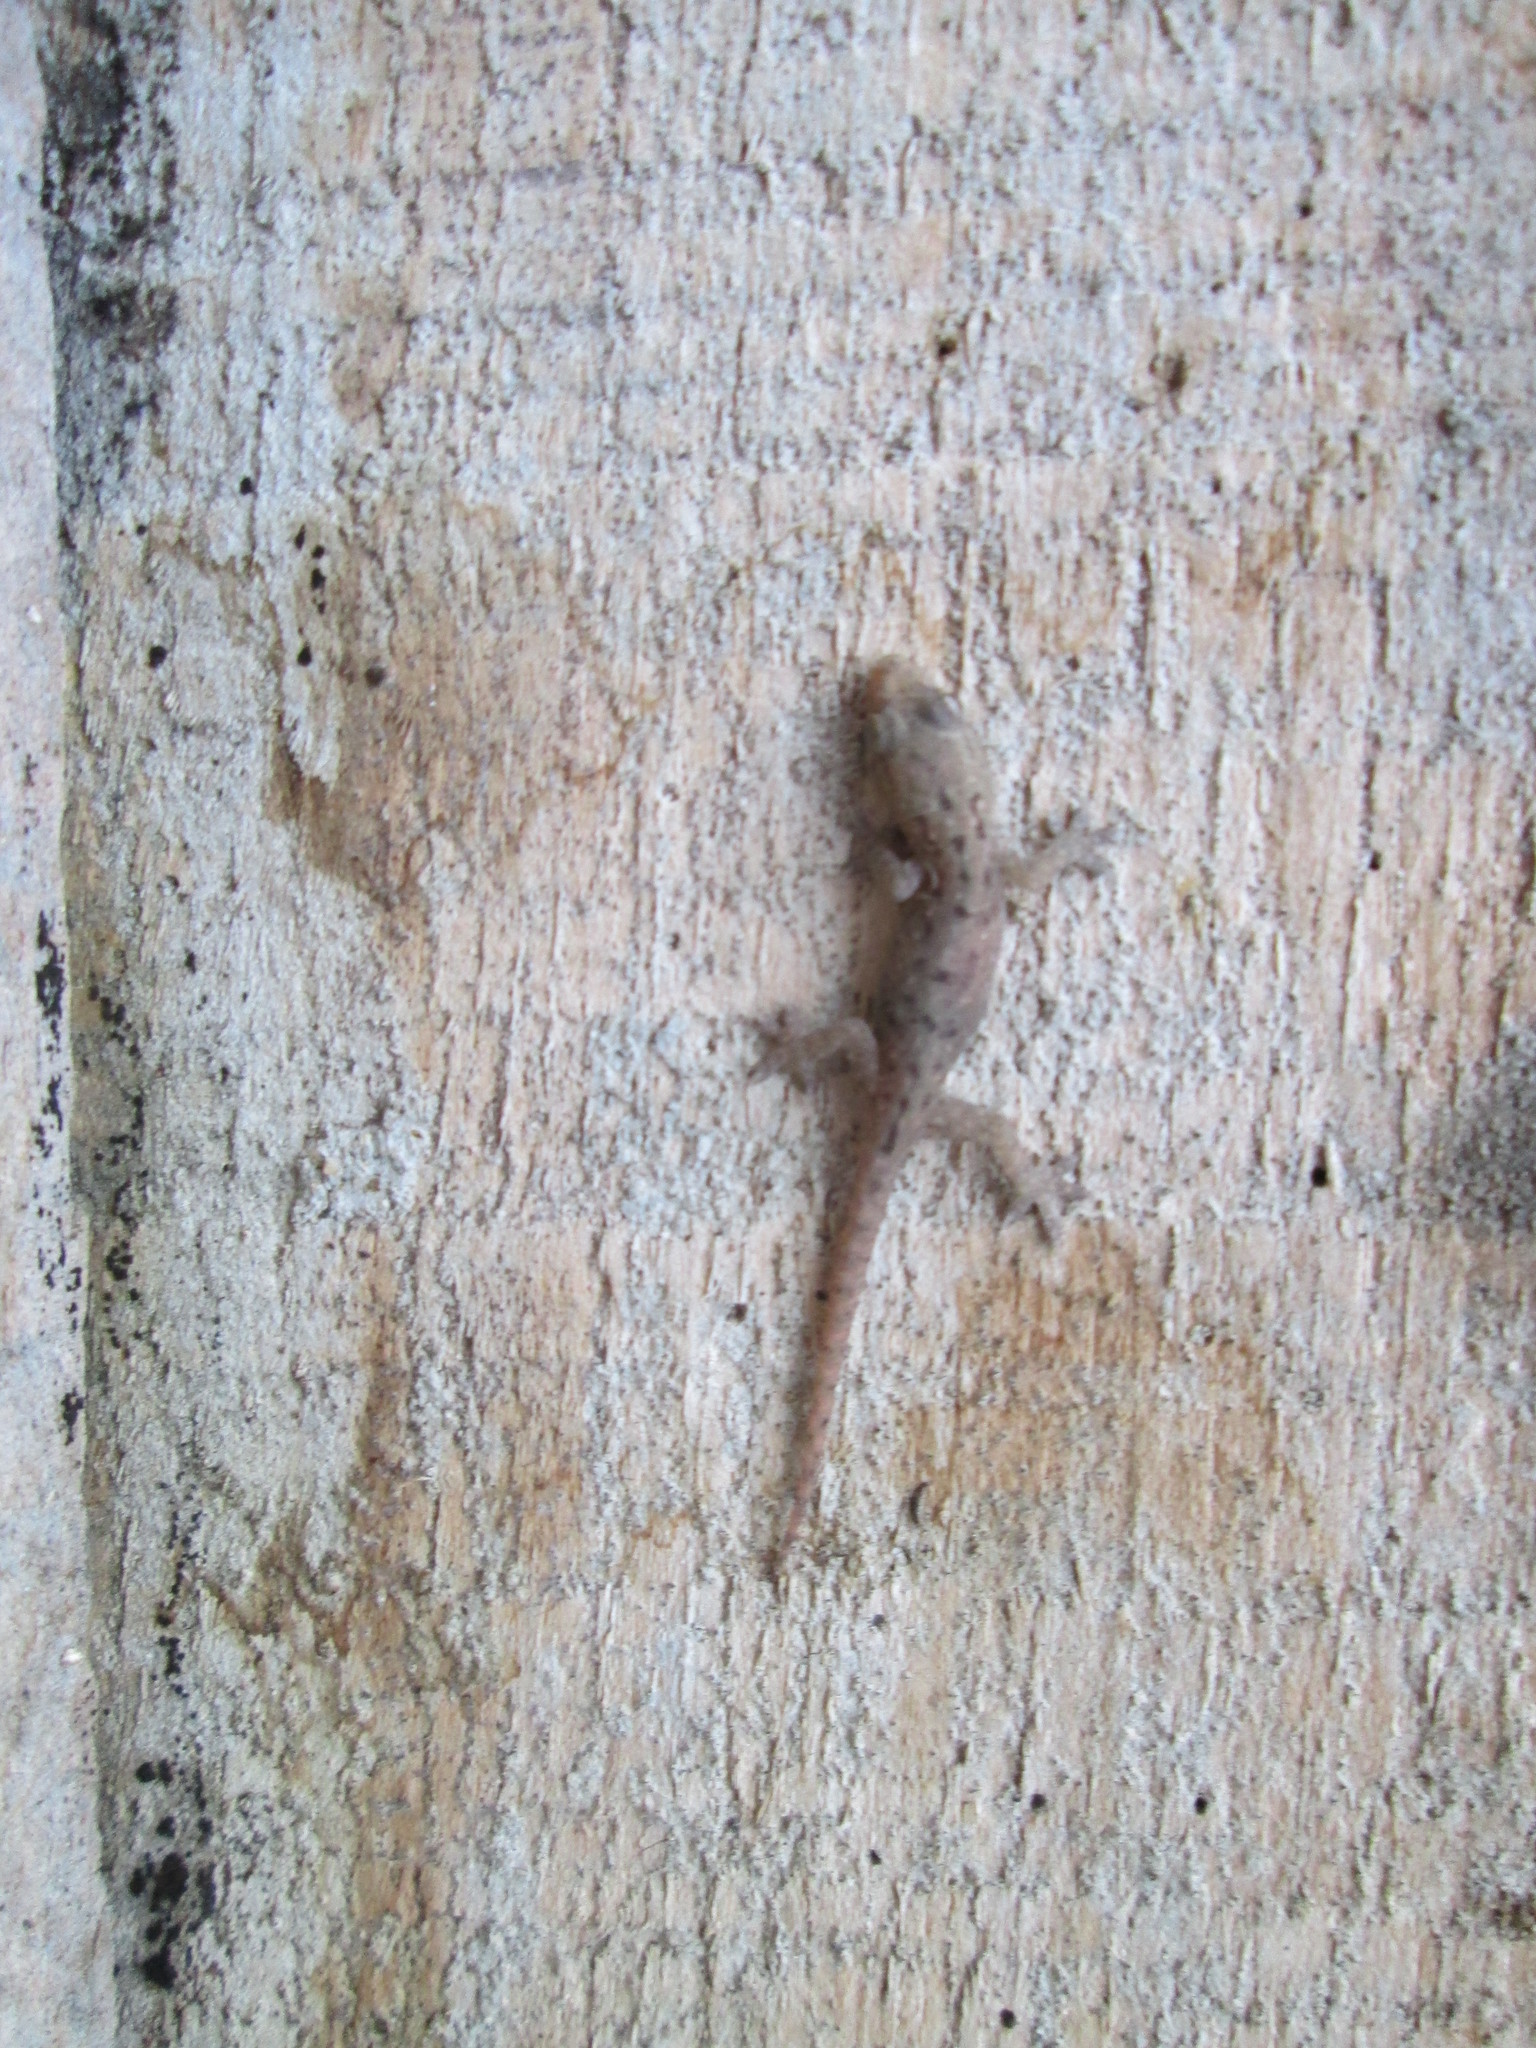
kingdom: Animalia
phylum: Chordata
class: Squamata
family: Gekkonidae
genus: Hemidactylus
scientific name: Hemidactylus frenatus
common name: Common house gecko
